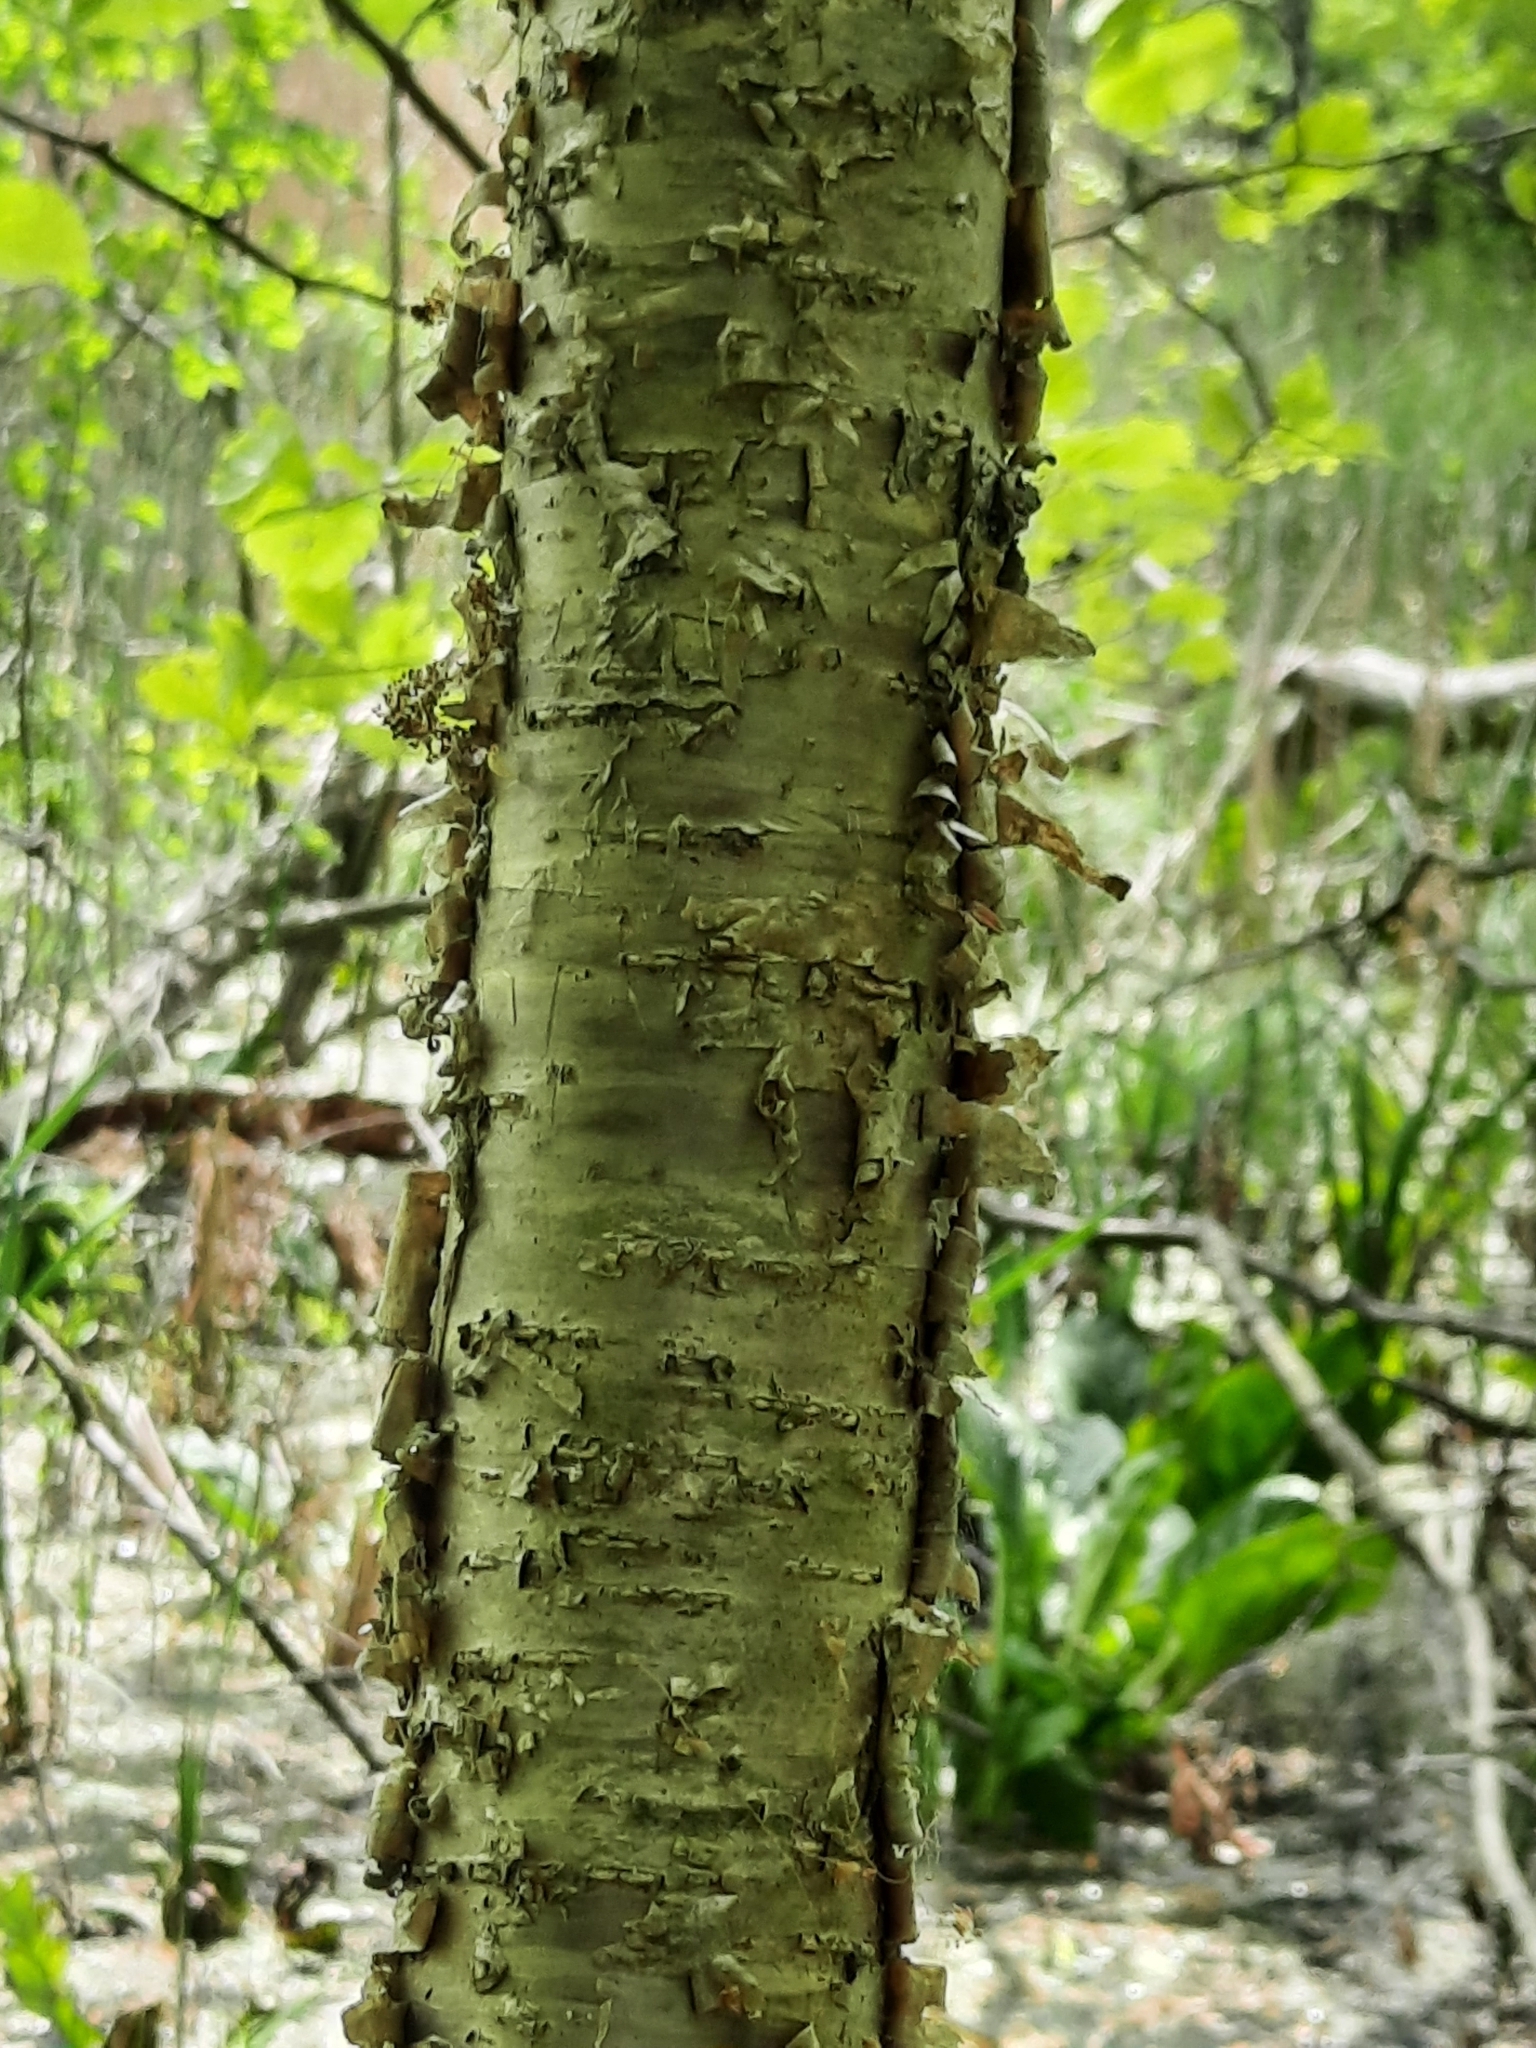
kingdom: Plantae
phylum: Tracheophyta
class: Magnoliopsida
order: Fagales
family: Betulaceae
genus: Betula
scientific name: Betula alleghaniensis
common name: Yellow birch
